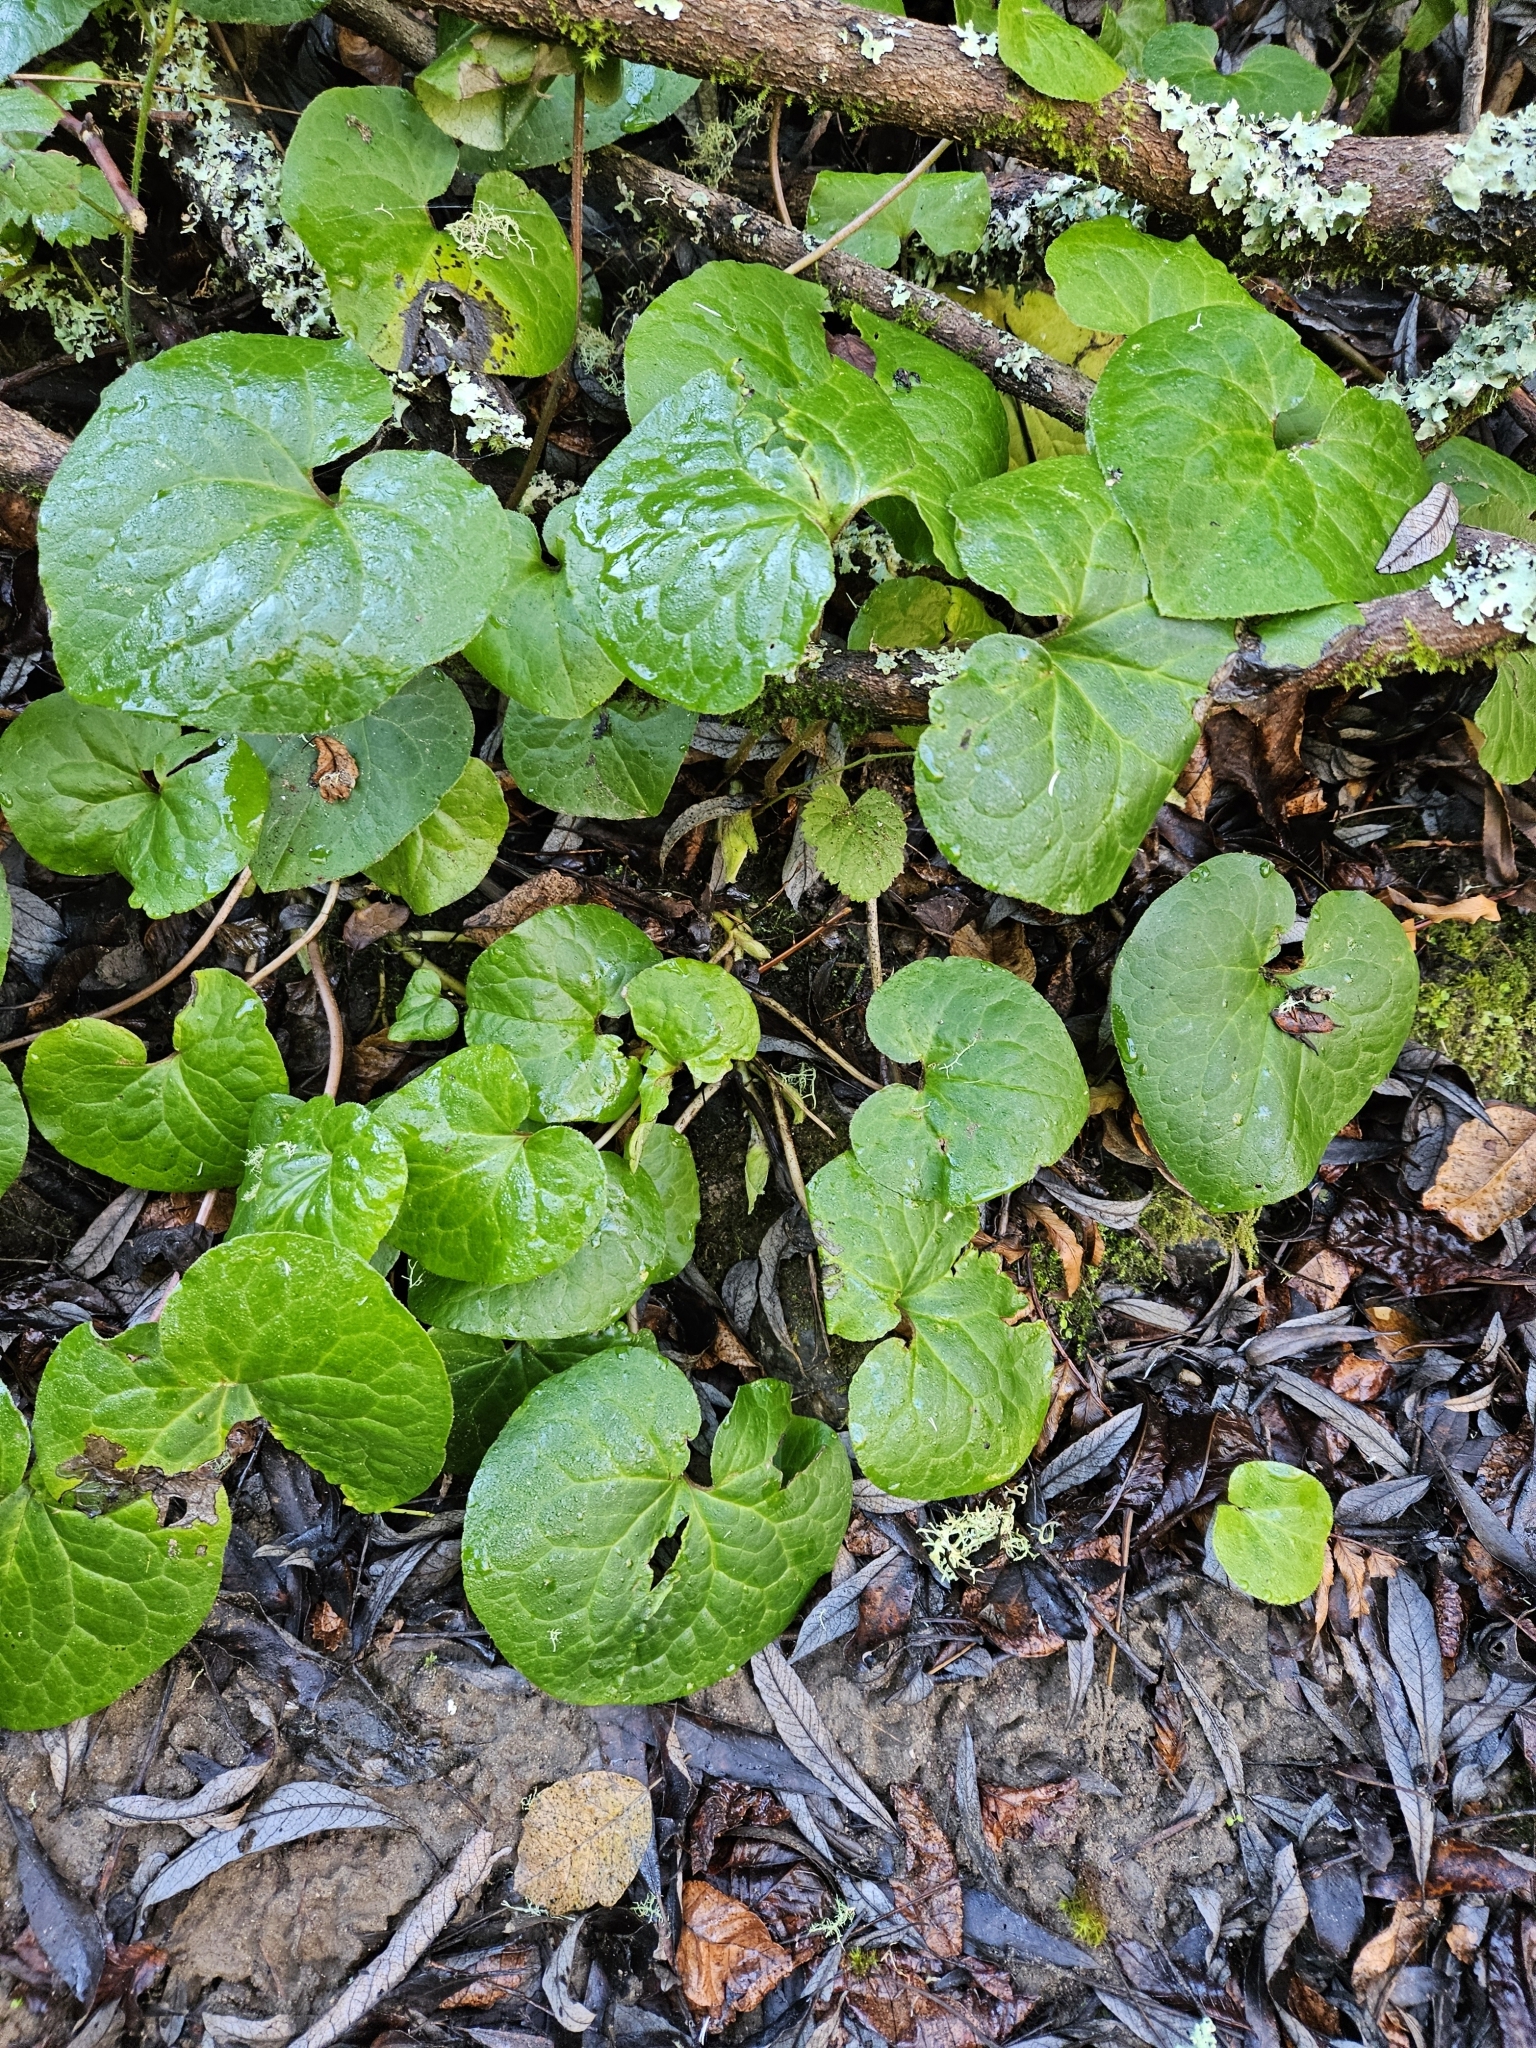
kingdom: Plantae
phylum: Tracheophyta
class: Magnoliopsida
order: Piperales
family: Aristolochiaceae
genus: Asarum
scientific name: Asarum caudatum
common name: Wild ginger
